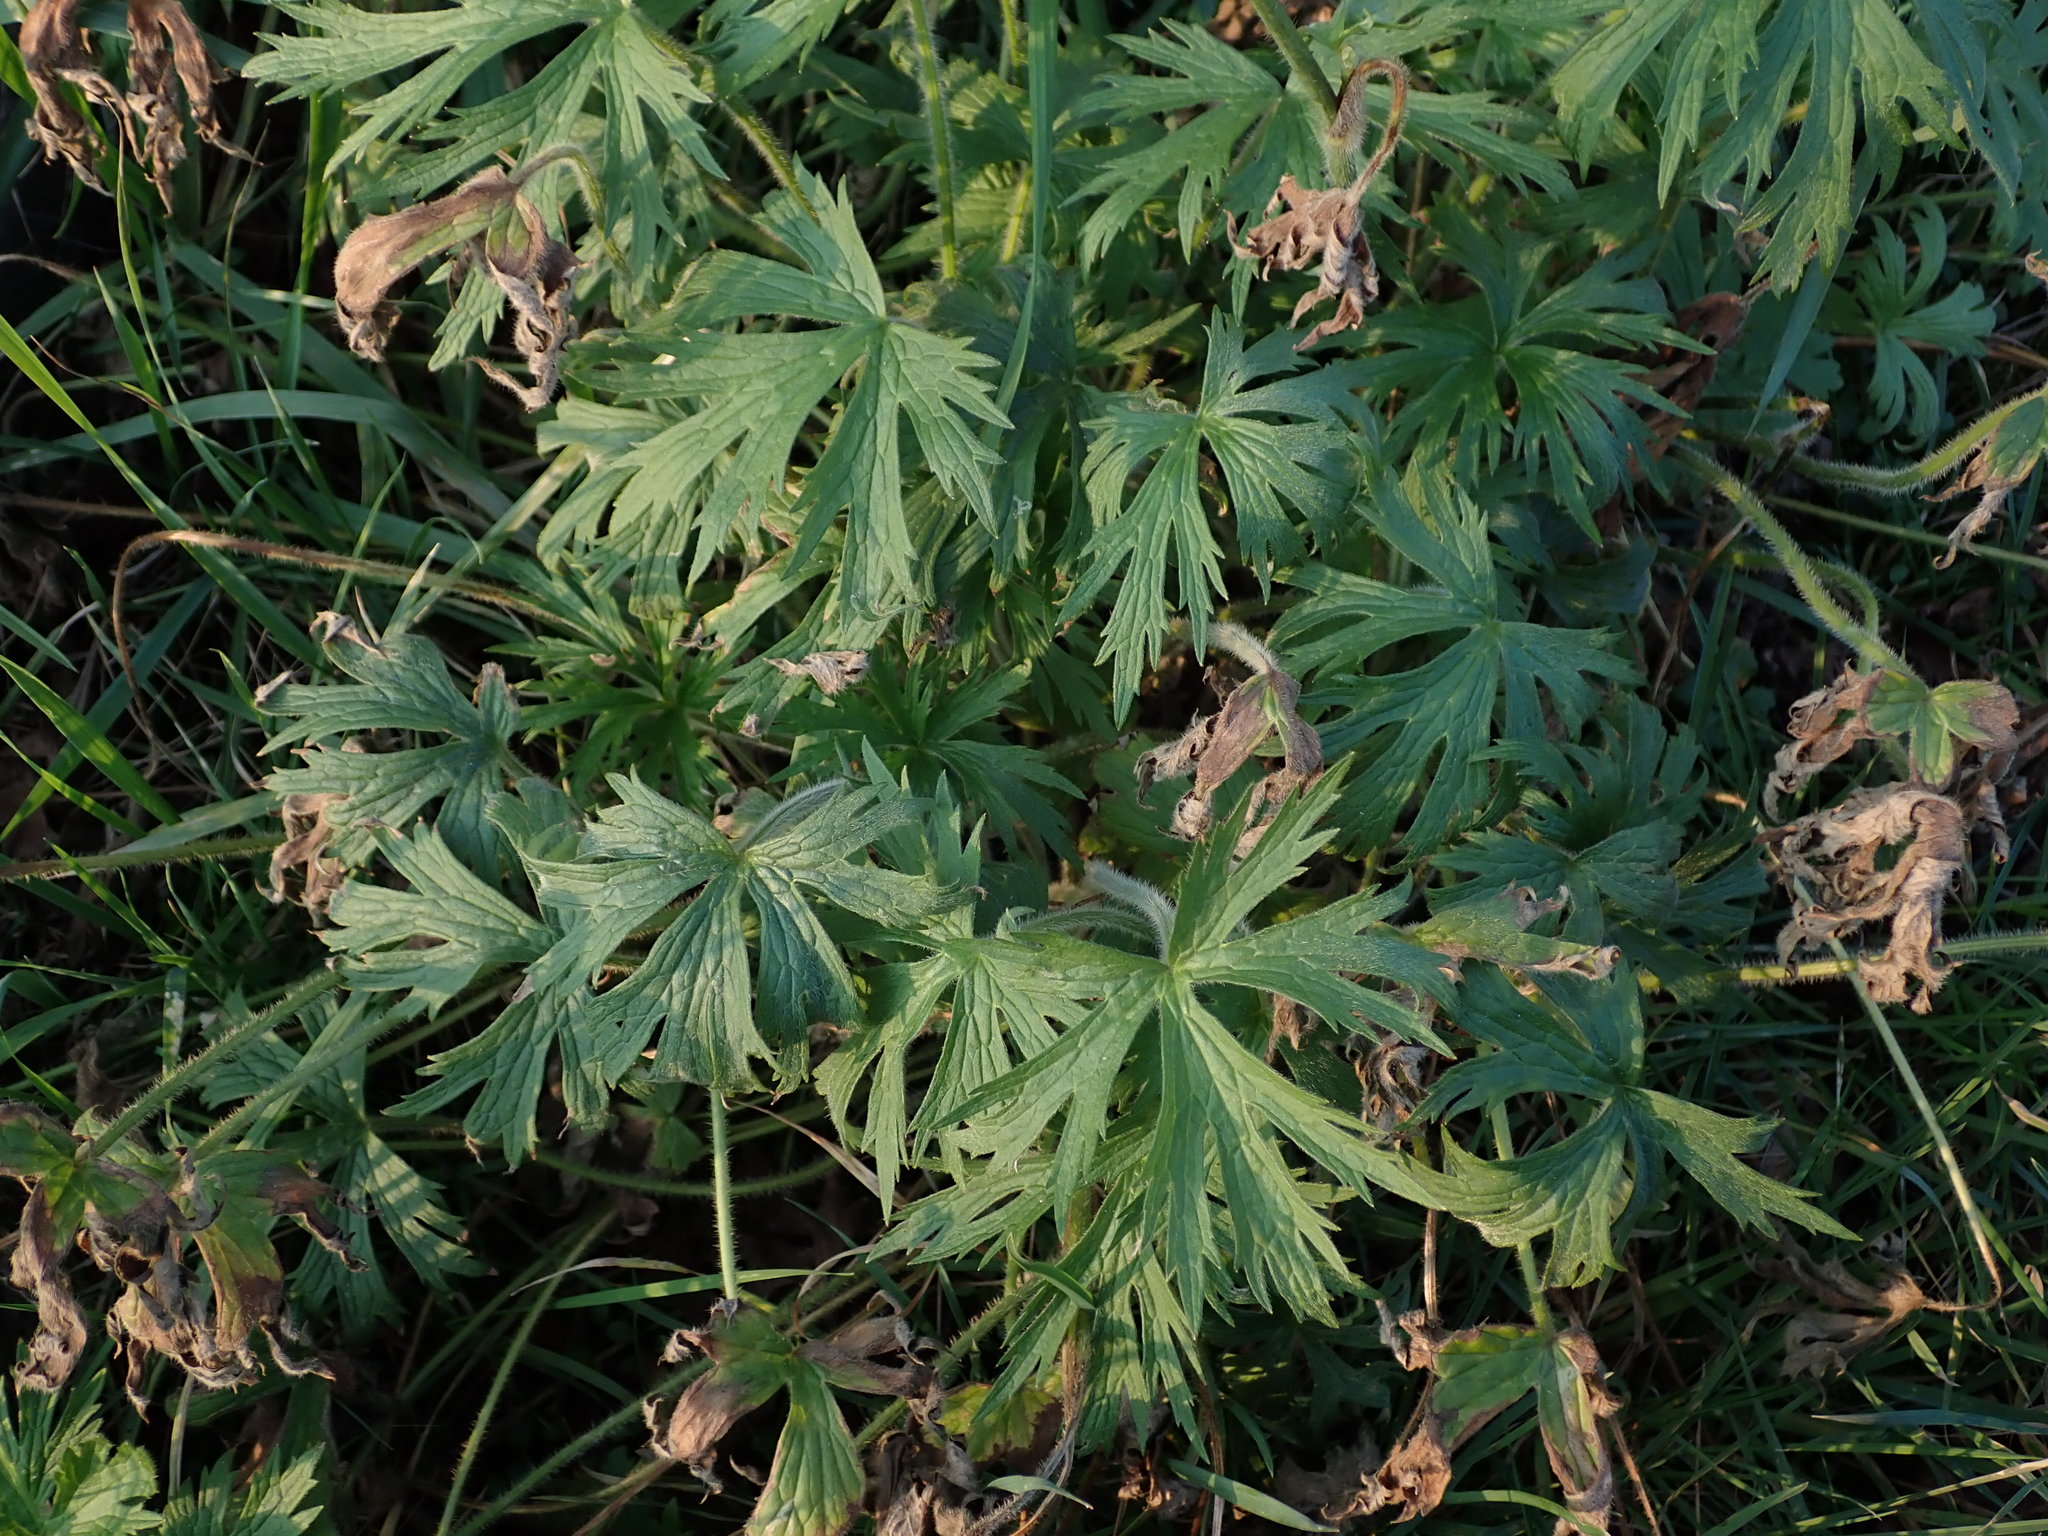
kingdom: Plantae
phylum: Tracheophyta
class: Magnoliopsida
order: Ranunculales
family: Ranunculaceae
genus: Ranunculus
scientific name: Ranunculus acris
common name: Meadow buttercup
